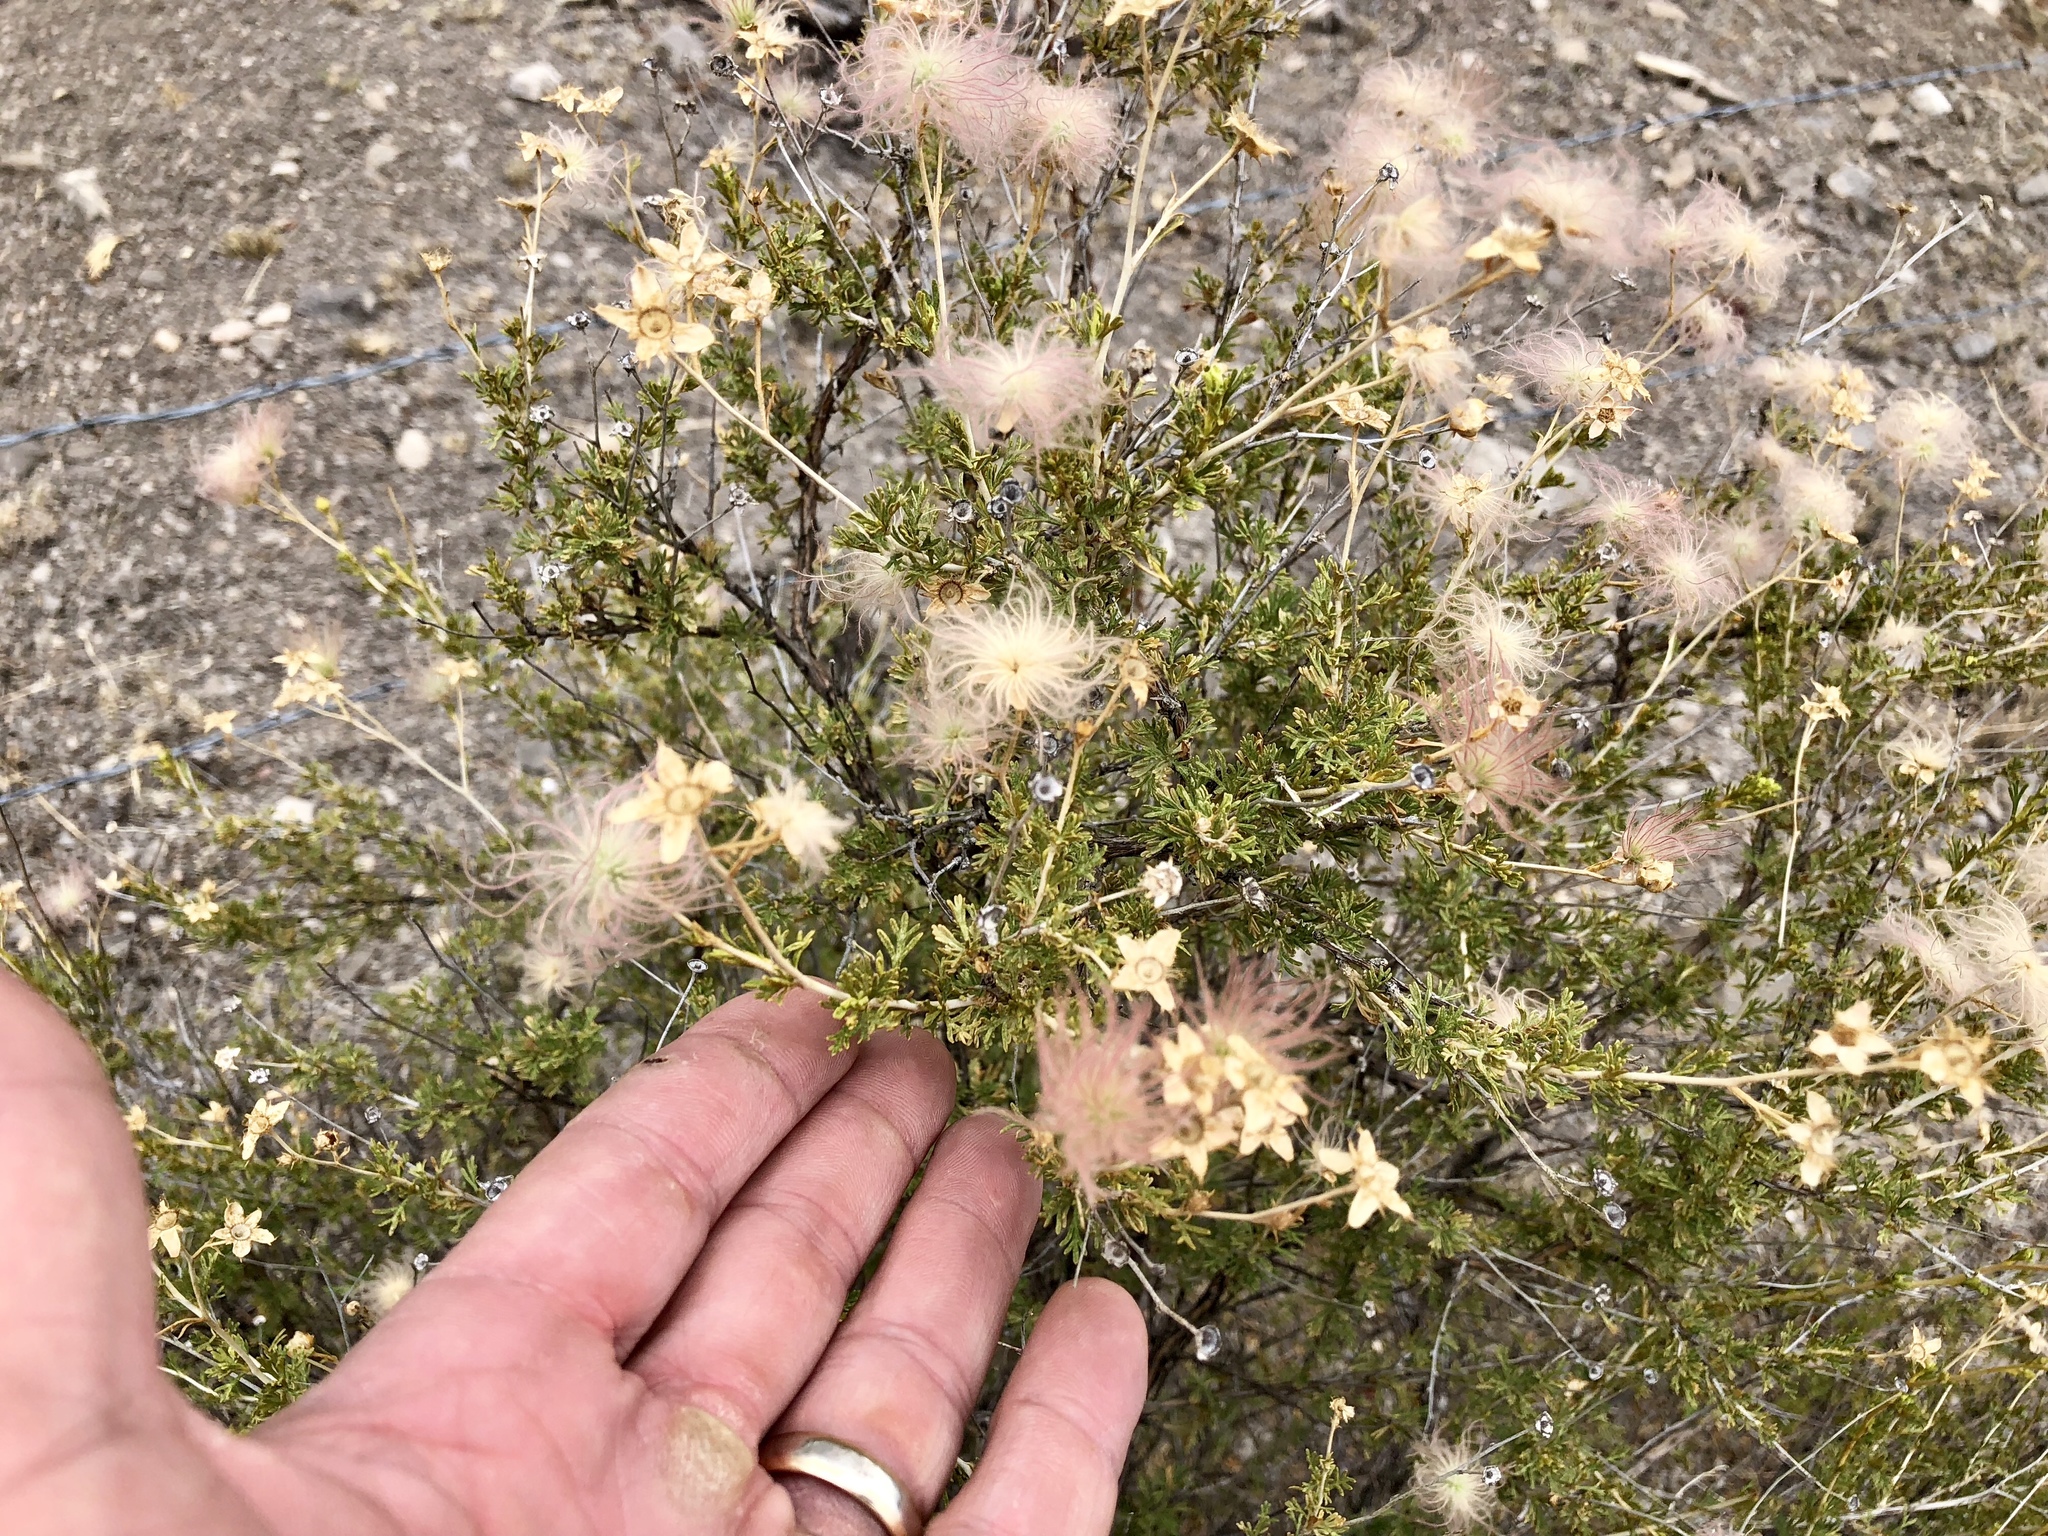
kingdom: Plantae
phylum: Tracheophyta
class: Magnoliopsida
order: Rosales
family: Rosaceae
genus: Fallugia
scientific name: Fallugia paradoxa
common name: Apache-plume
